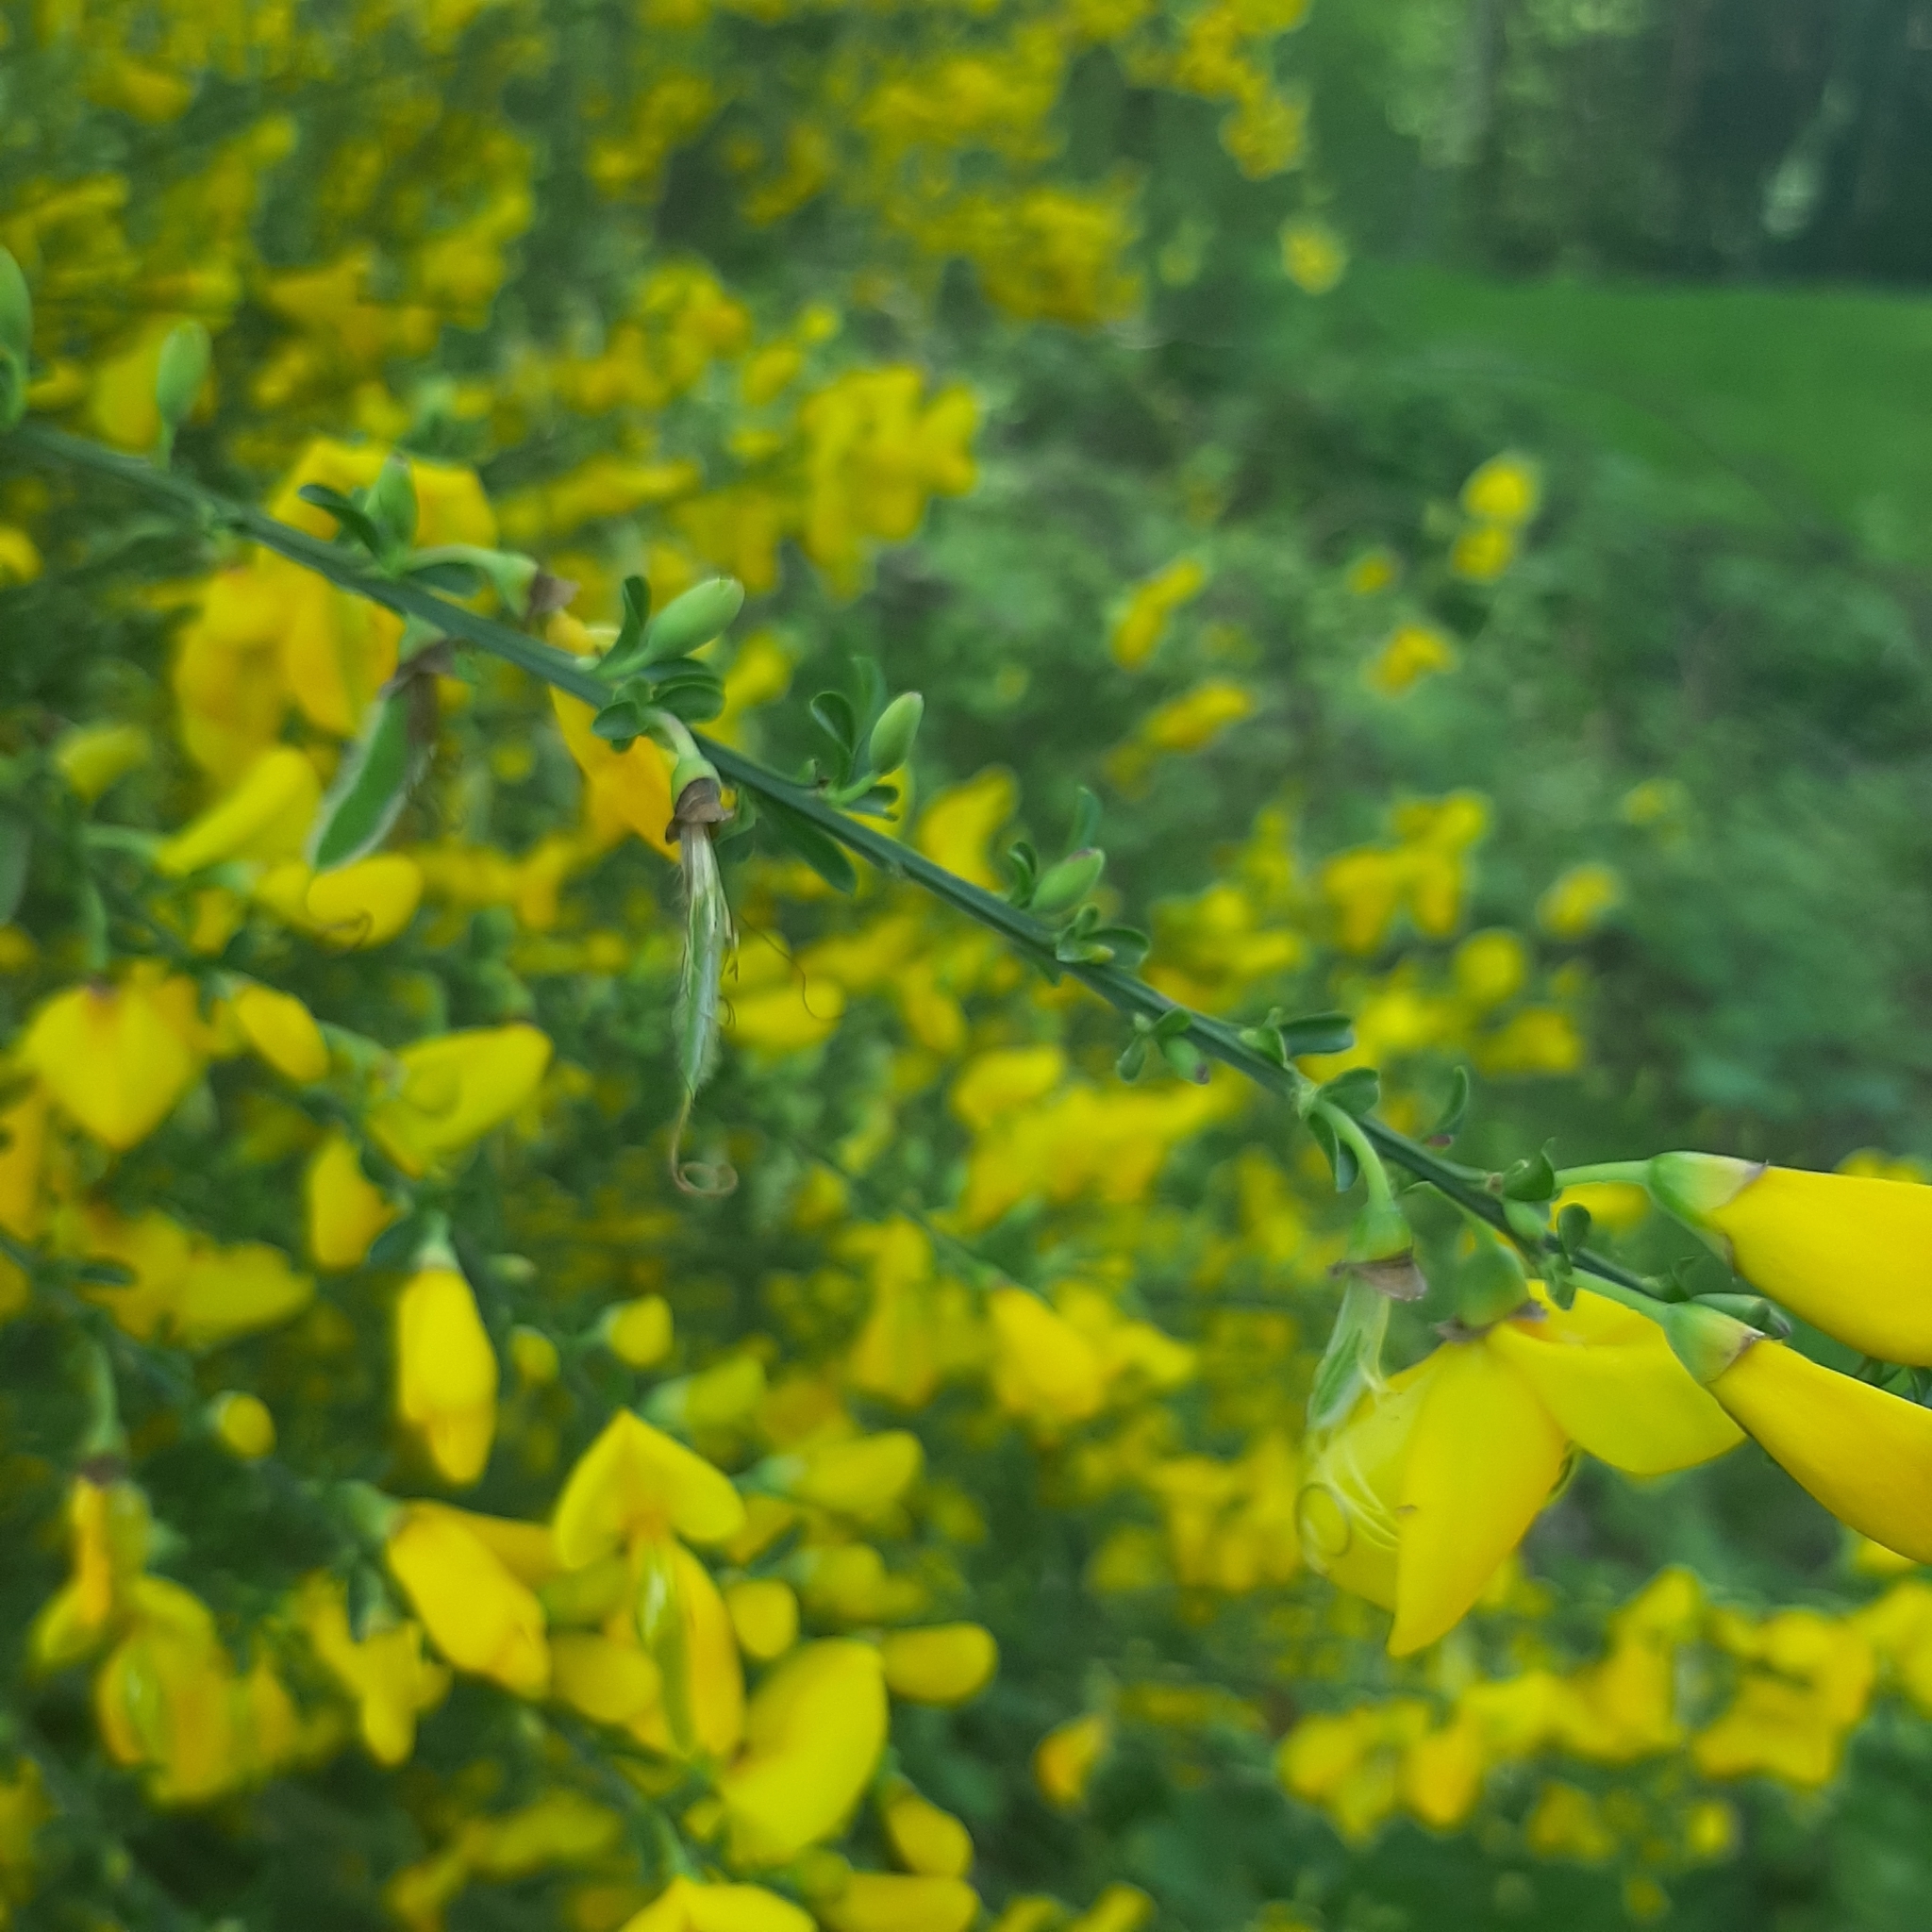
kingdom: Plantae
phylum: Tracheophyta
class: Magnoliopsida
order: Fabales
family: Fabaceae
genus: Cytisus
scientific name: Cytisus scoparius
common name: Scotch broom
